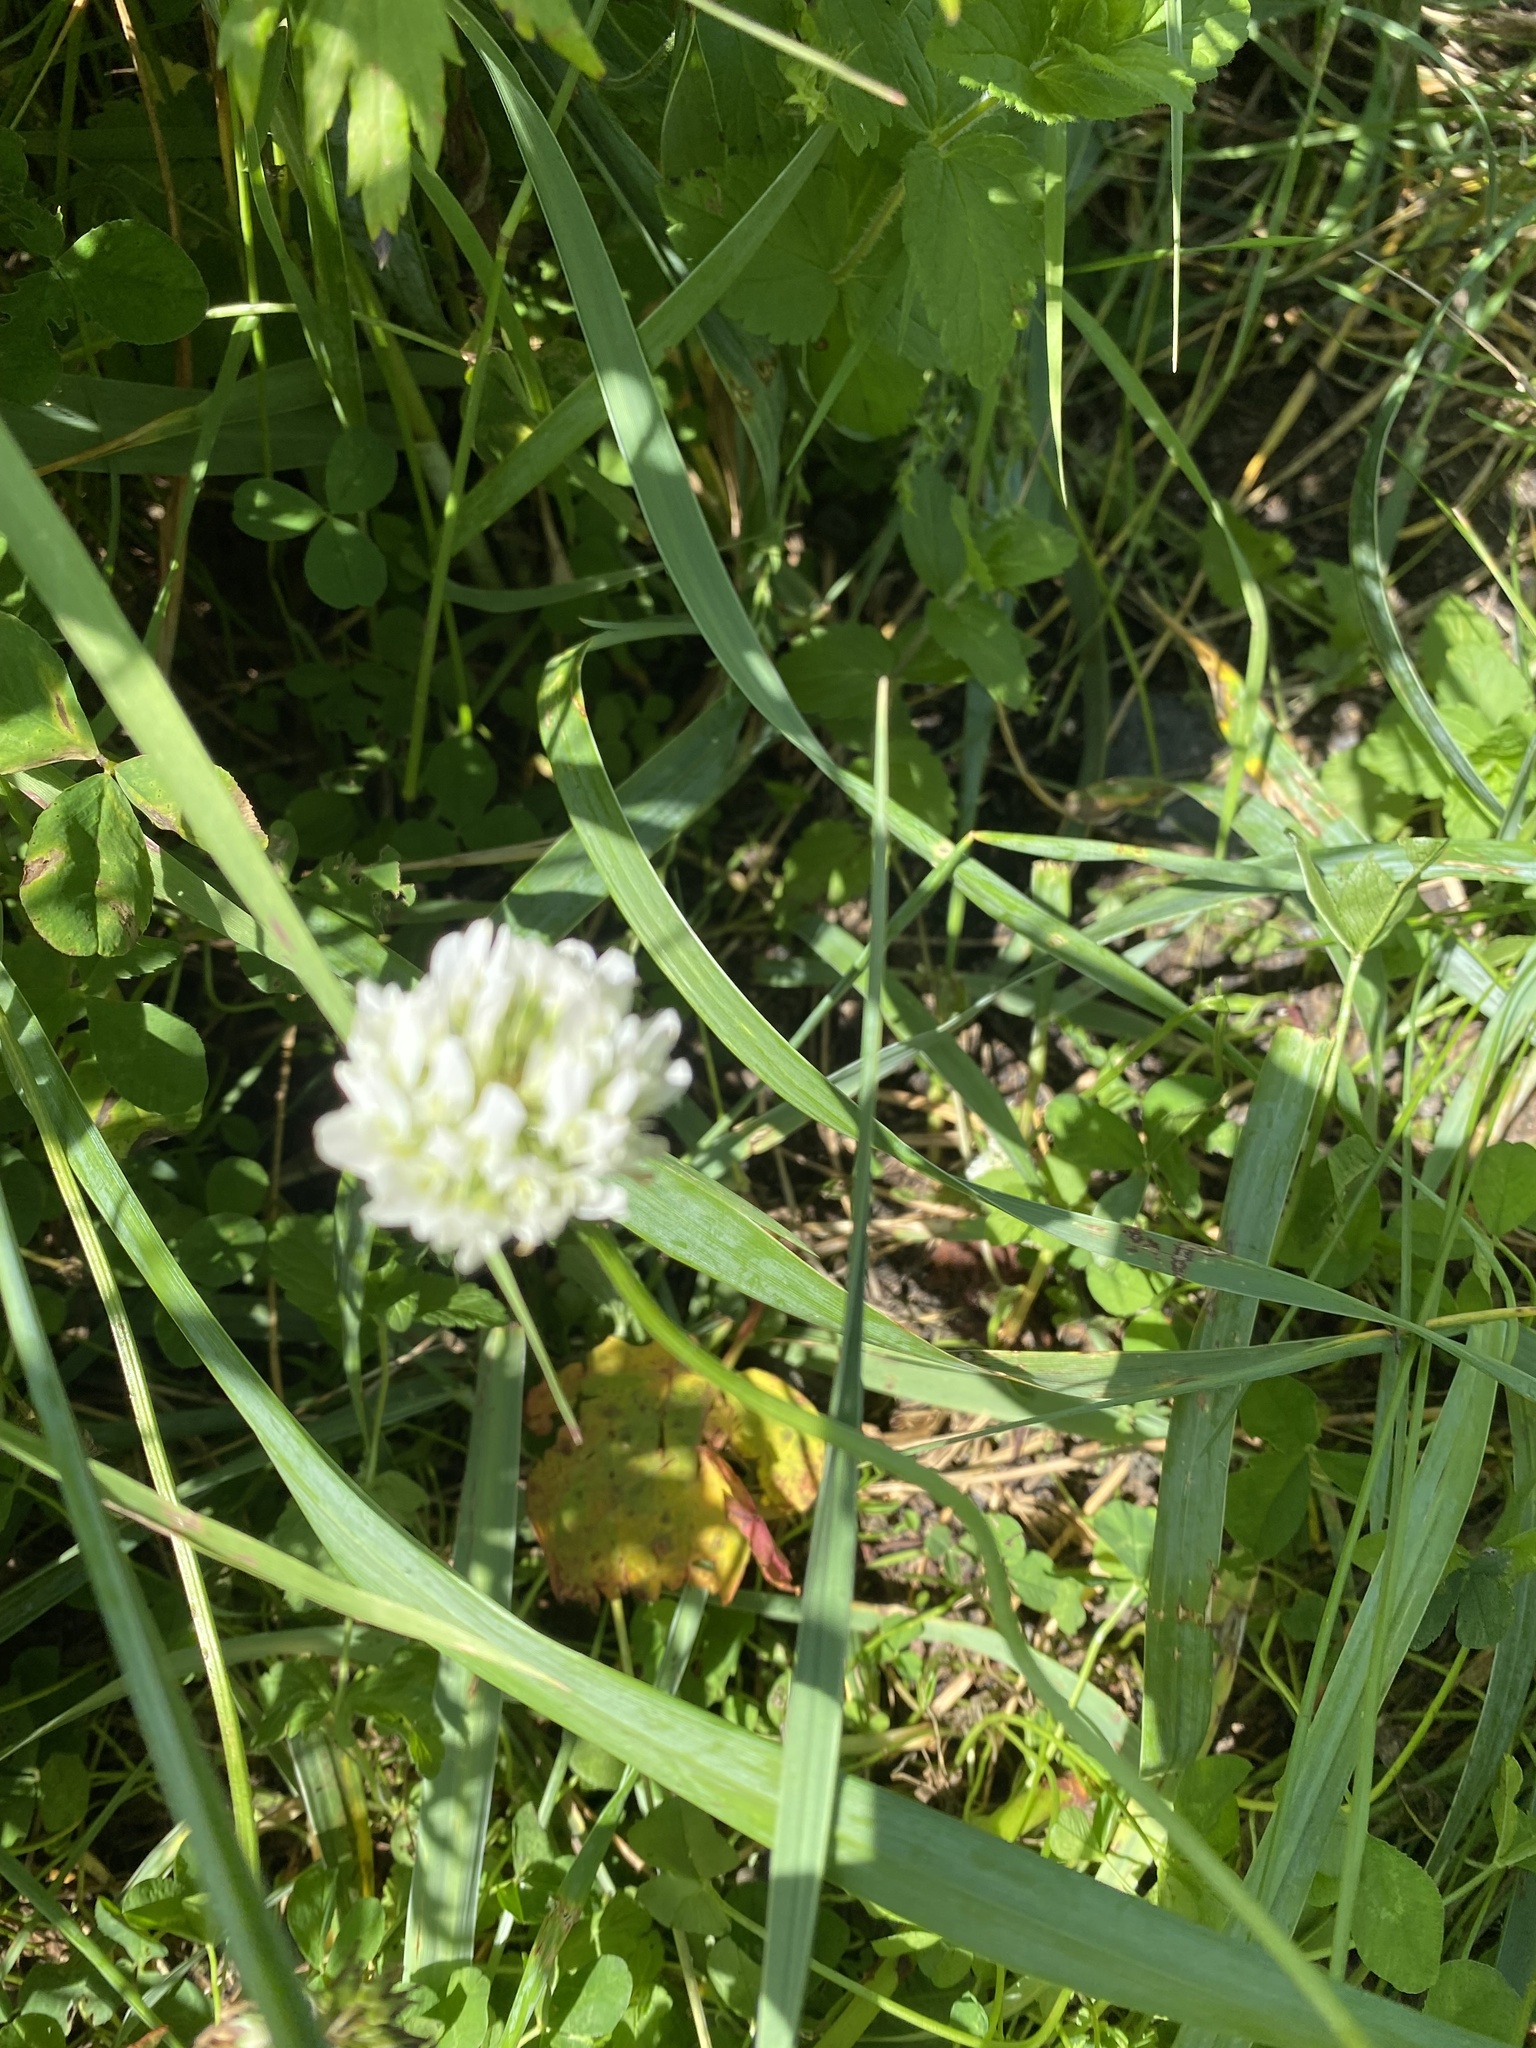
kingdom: Plantae
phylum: Tracheophyta
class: Magnoliopsida
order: Fabales
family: Fabaceae
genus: Trifolium
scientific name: Trifolium repens
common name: White clover
